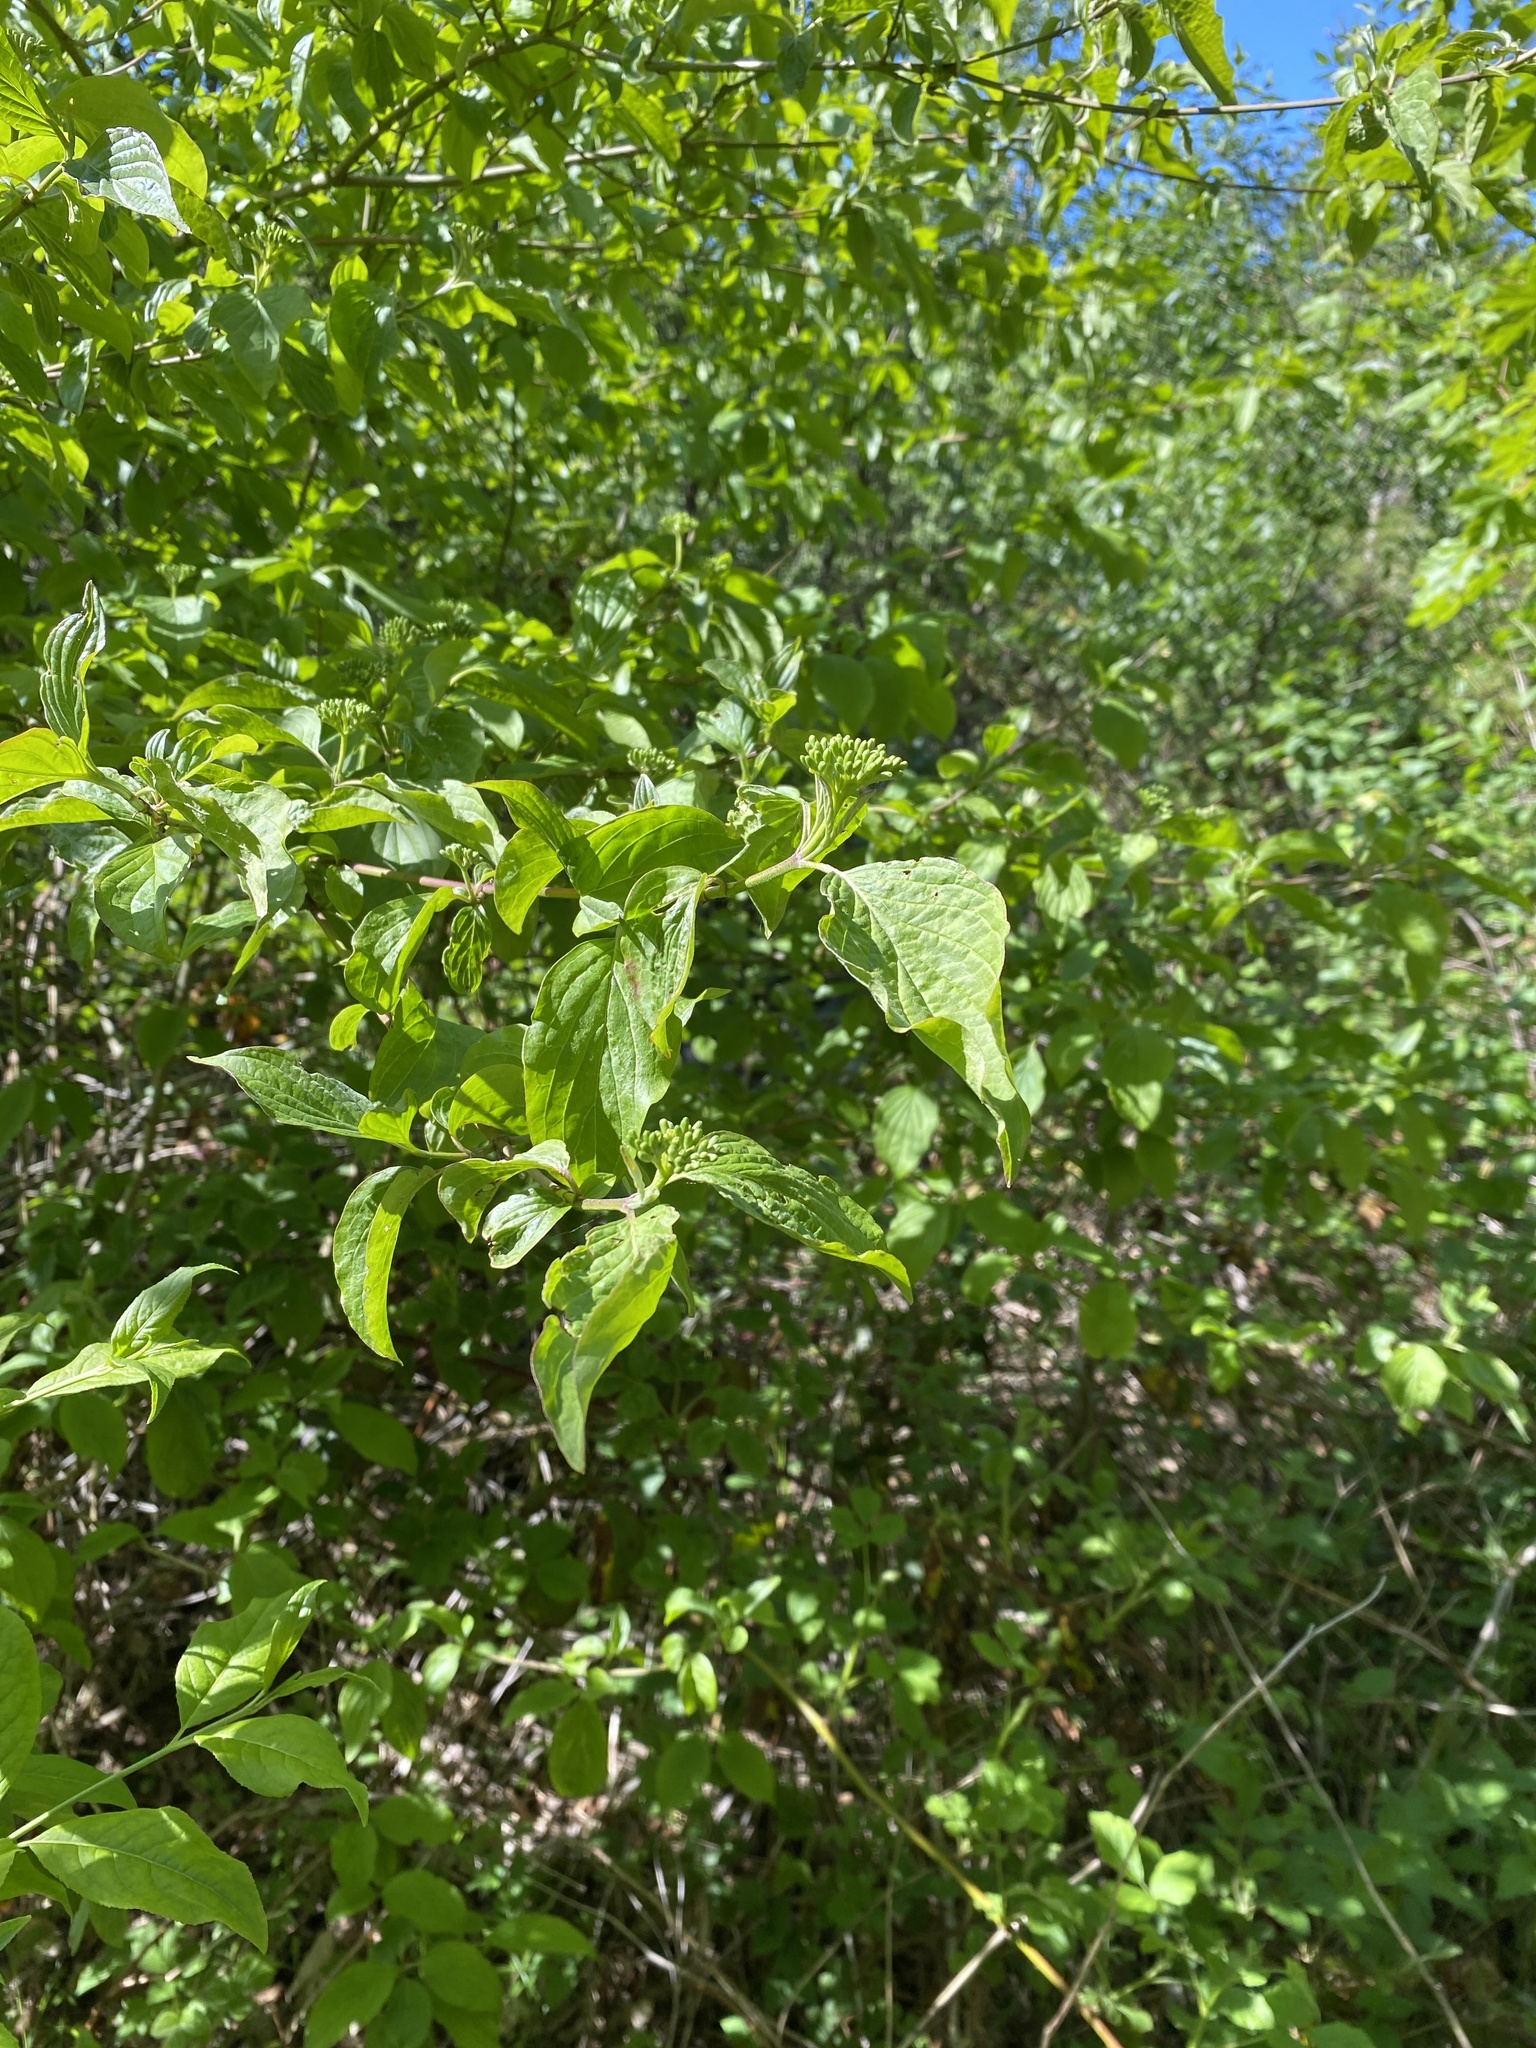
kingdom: Plantae
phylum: Tracheophyta
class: Magnoliopsida
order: Cornales
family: Cornaceae
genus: Cornus
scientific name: Cornus sanguinea
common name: Dogwood
